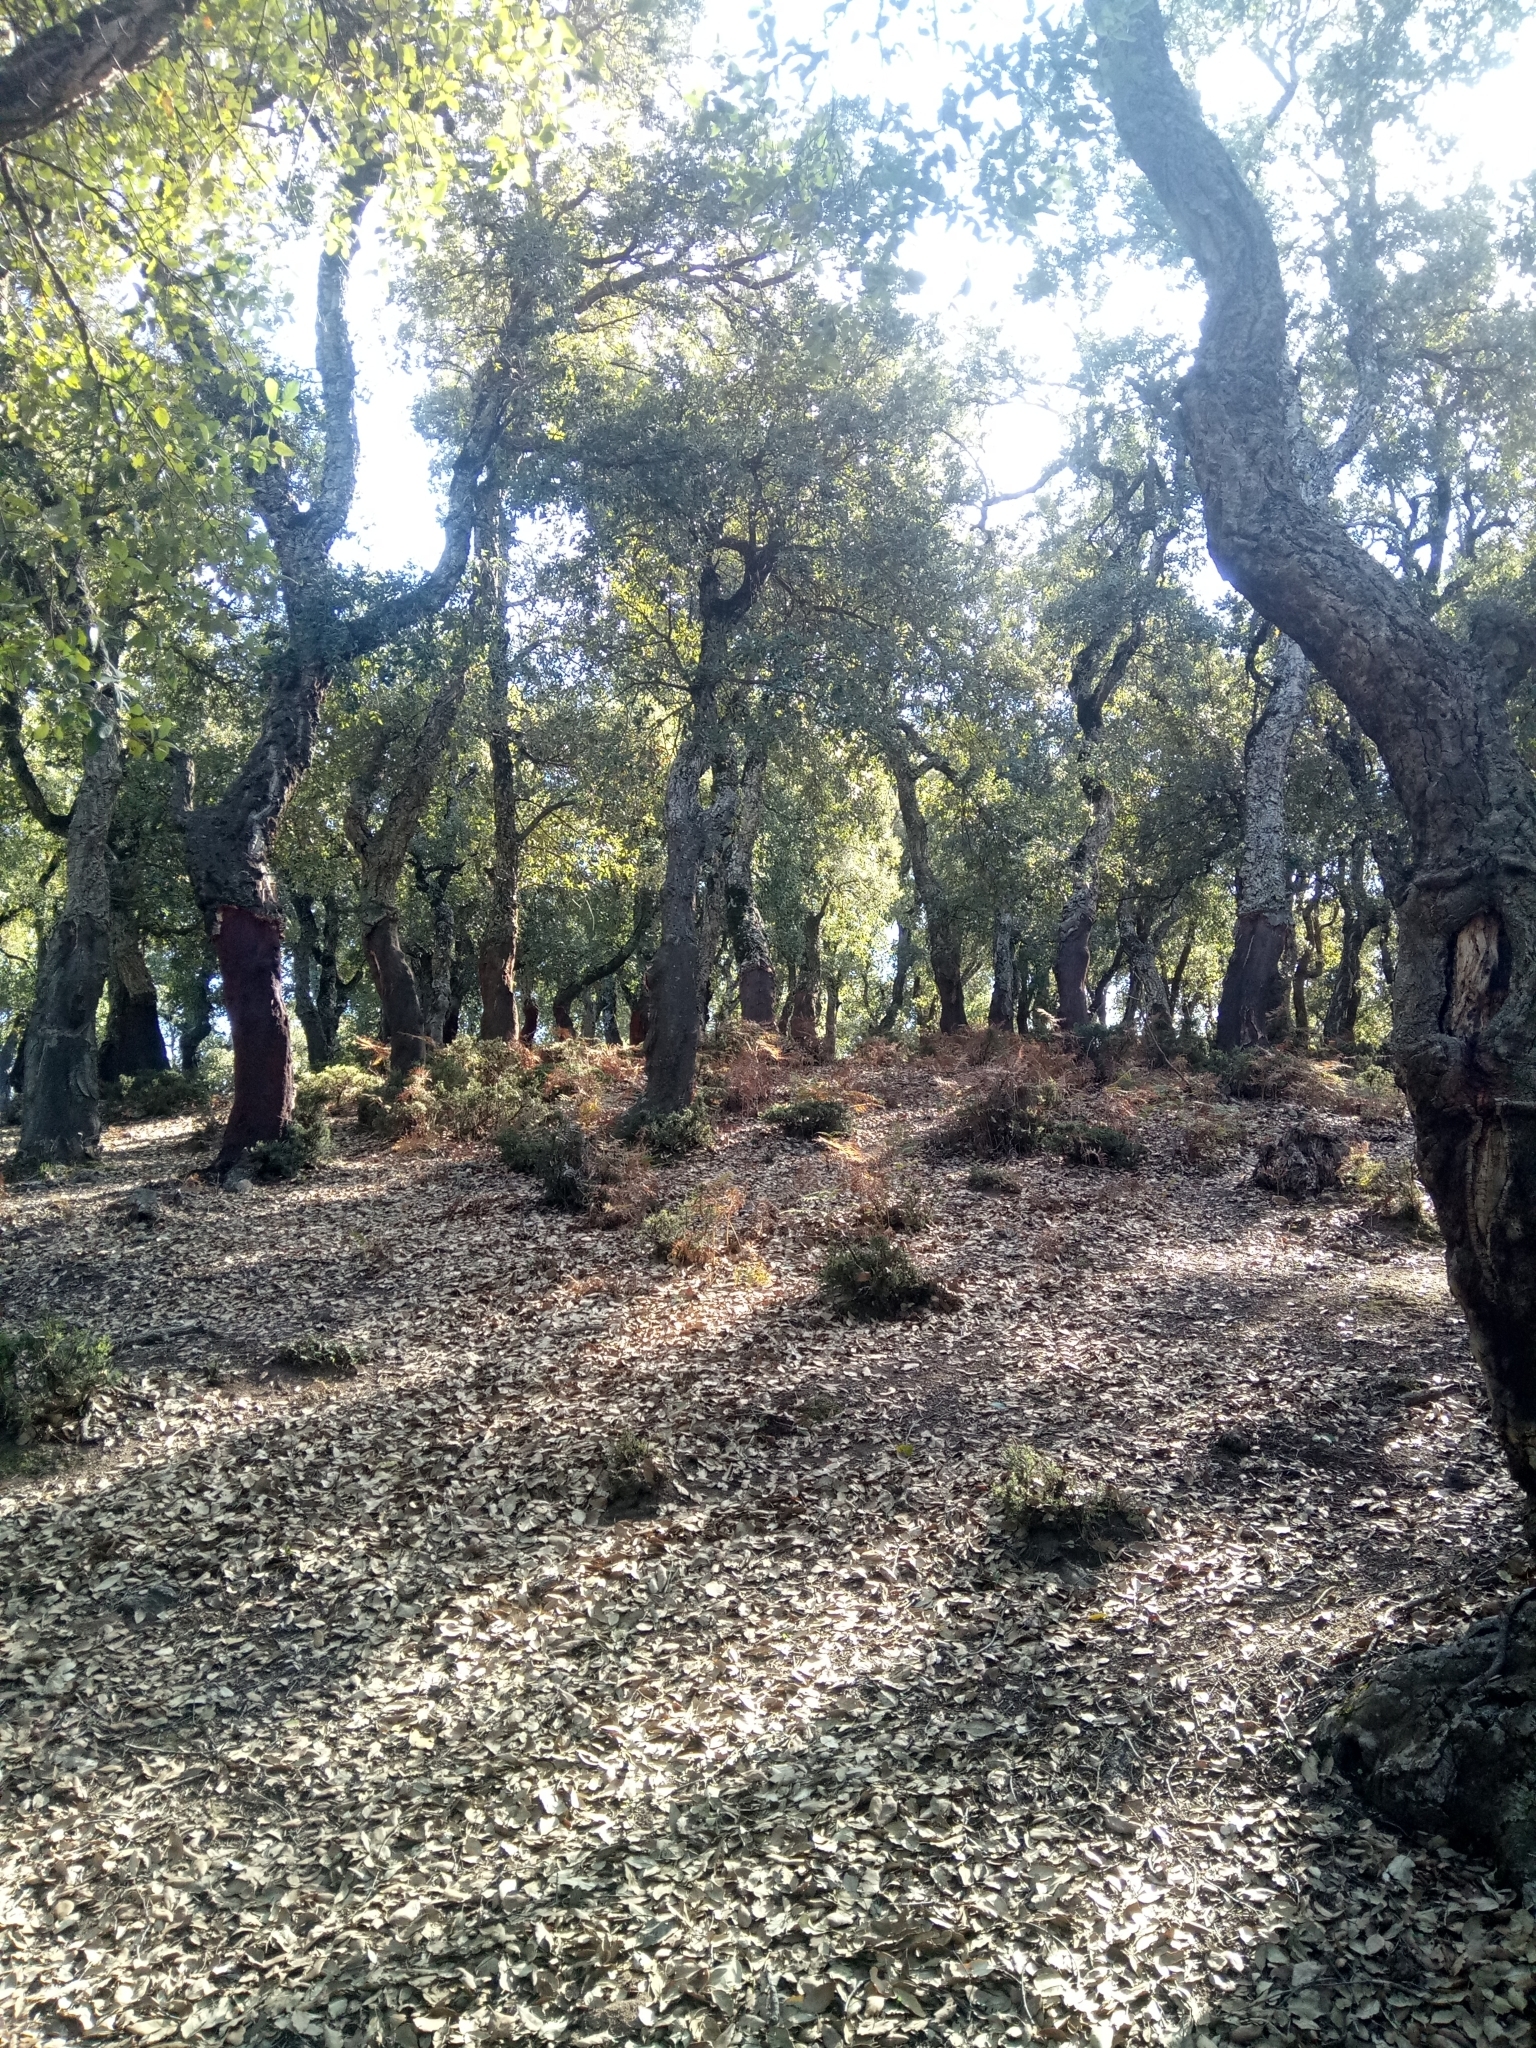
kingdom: Plantae
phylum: Tracheophyta
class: Magnoliopsida
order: Fagales
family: Fagaceae
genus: Quercus
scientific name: Quercus suber
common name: Cork oak
